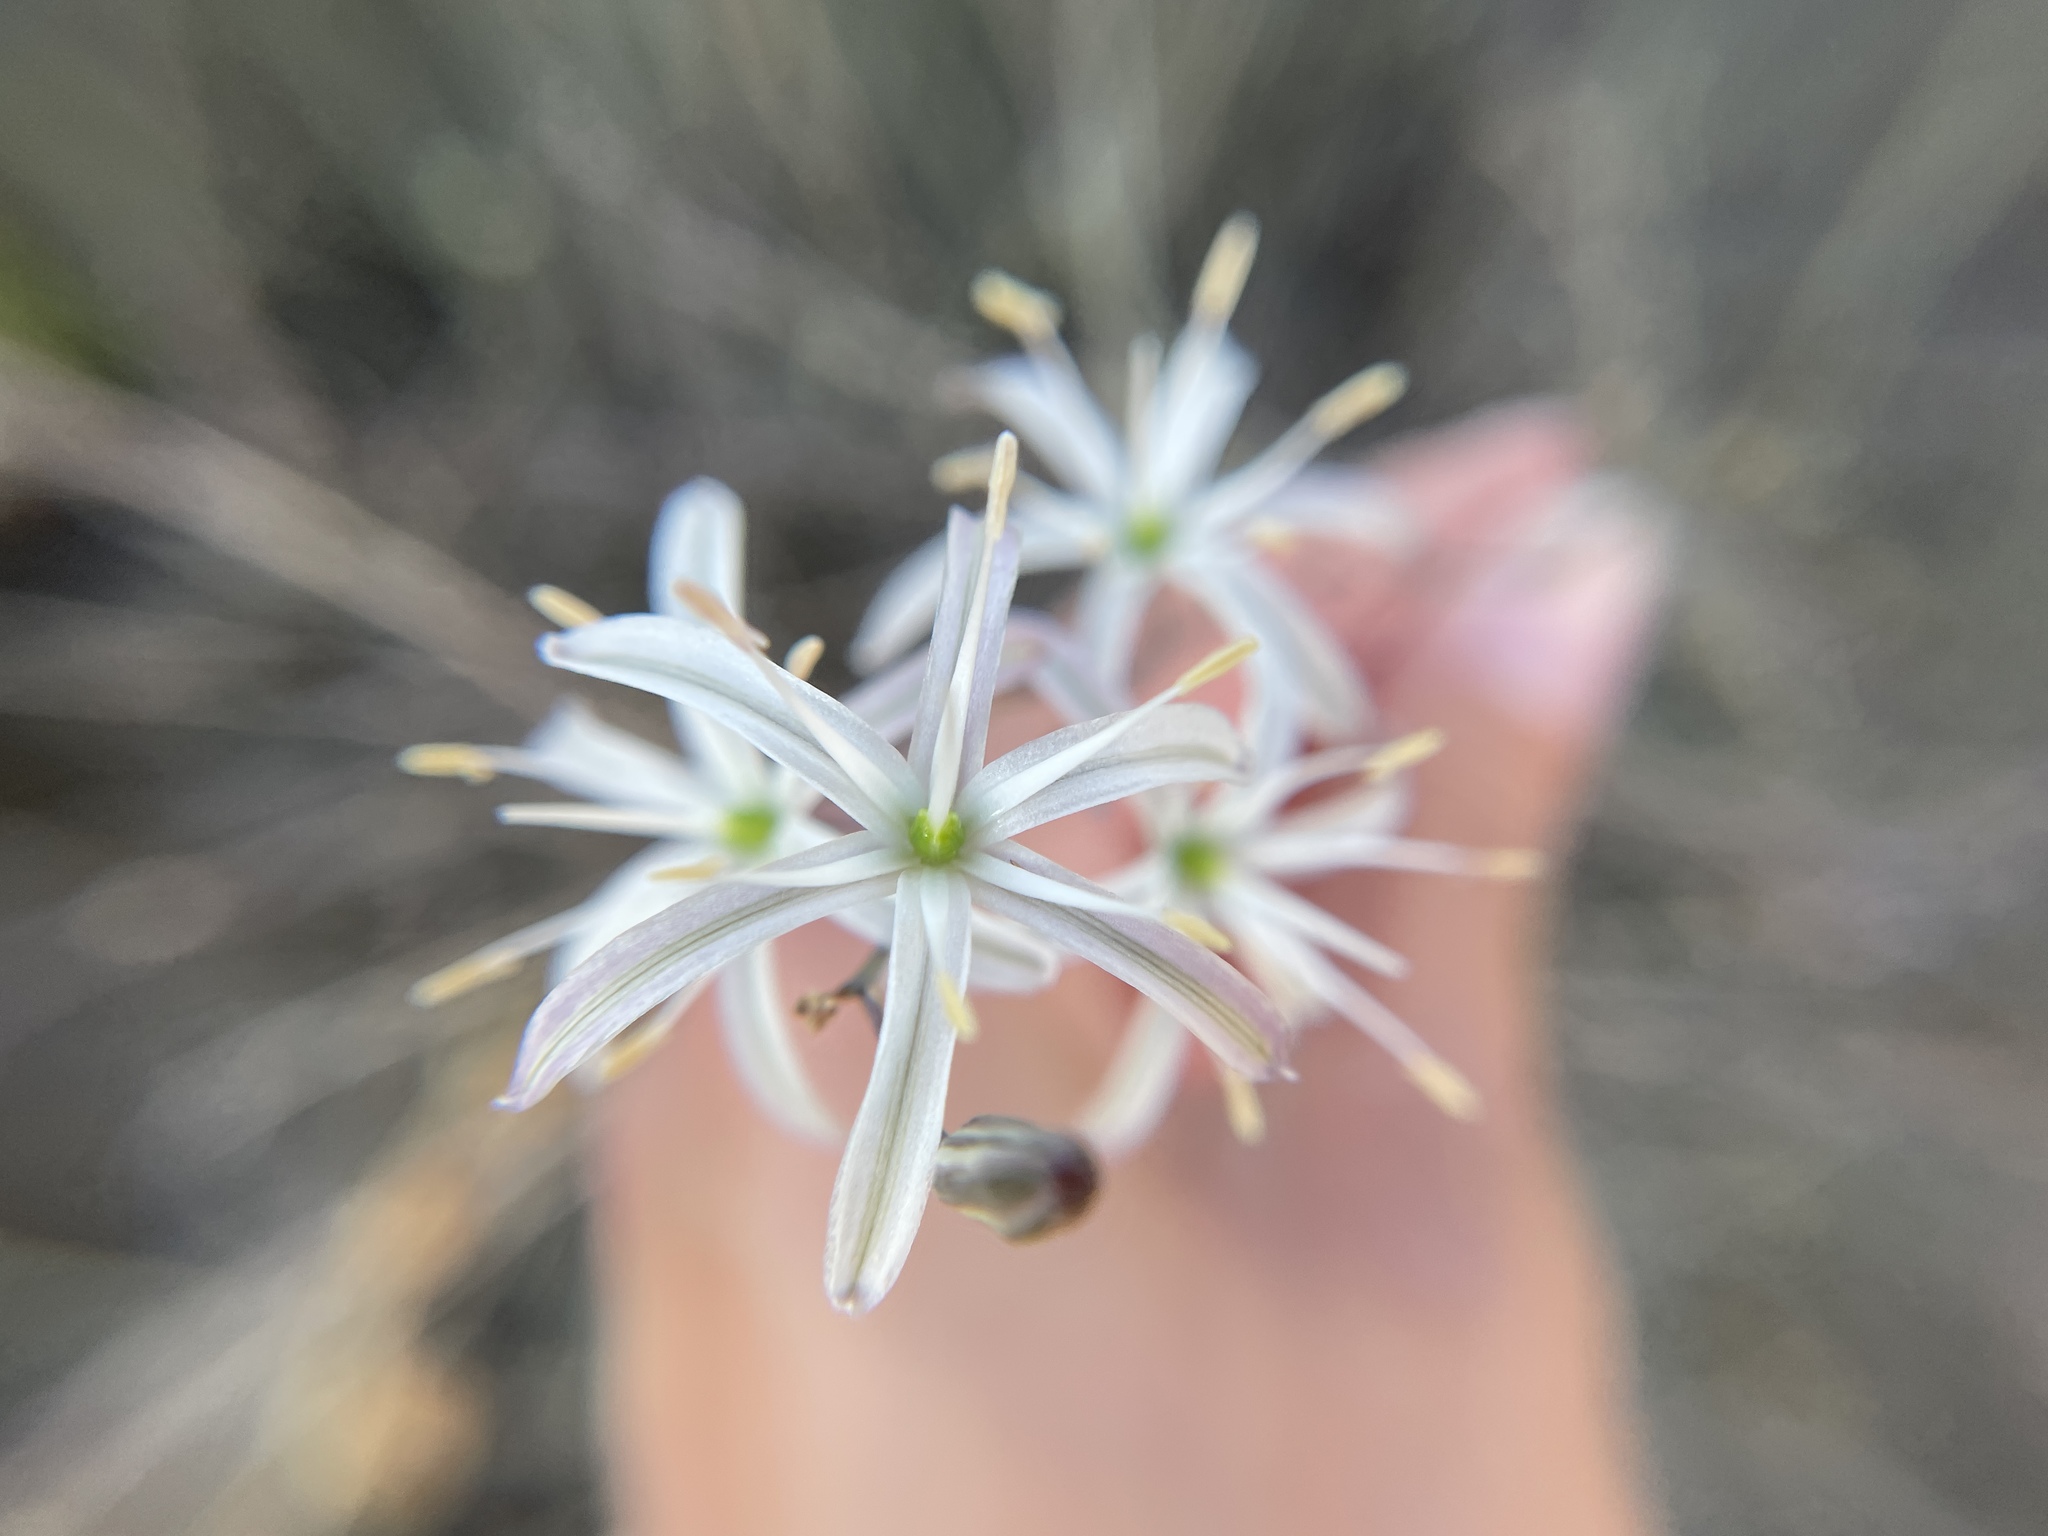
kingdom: Plantae
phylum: Tracheophyta
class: Liliopsida
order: Asparagales
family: Asparagaceae
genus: Chlorogalum
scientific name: Chlorogalum pomeridianum
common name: Amole
